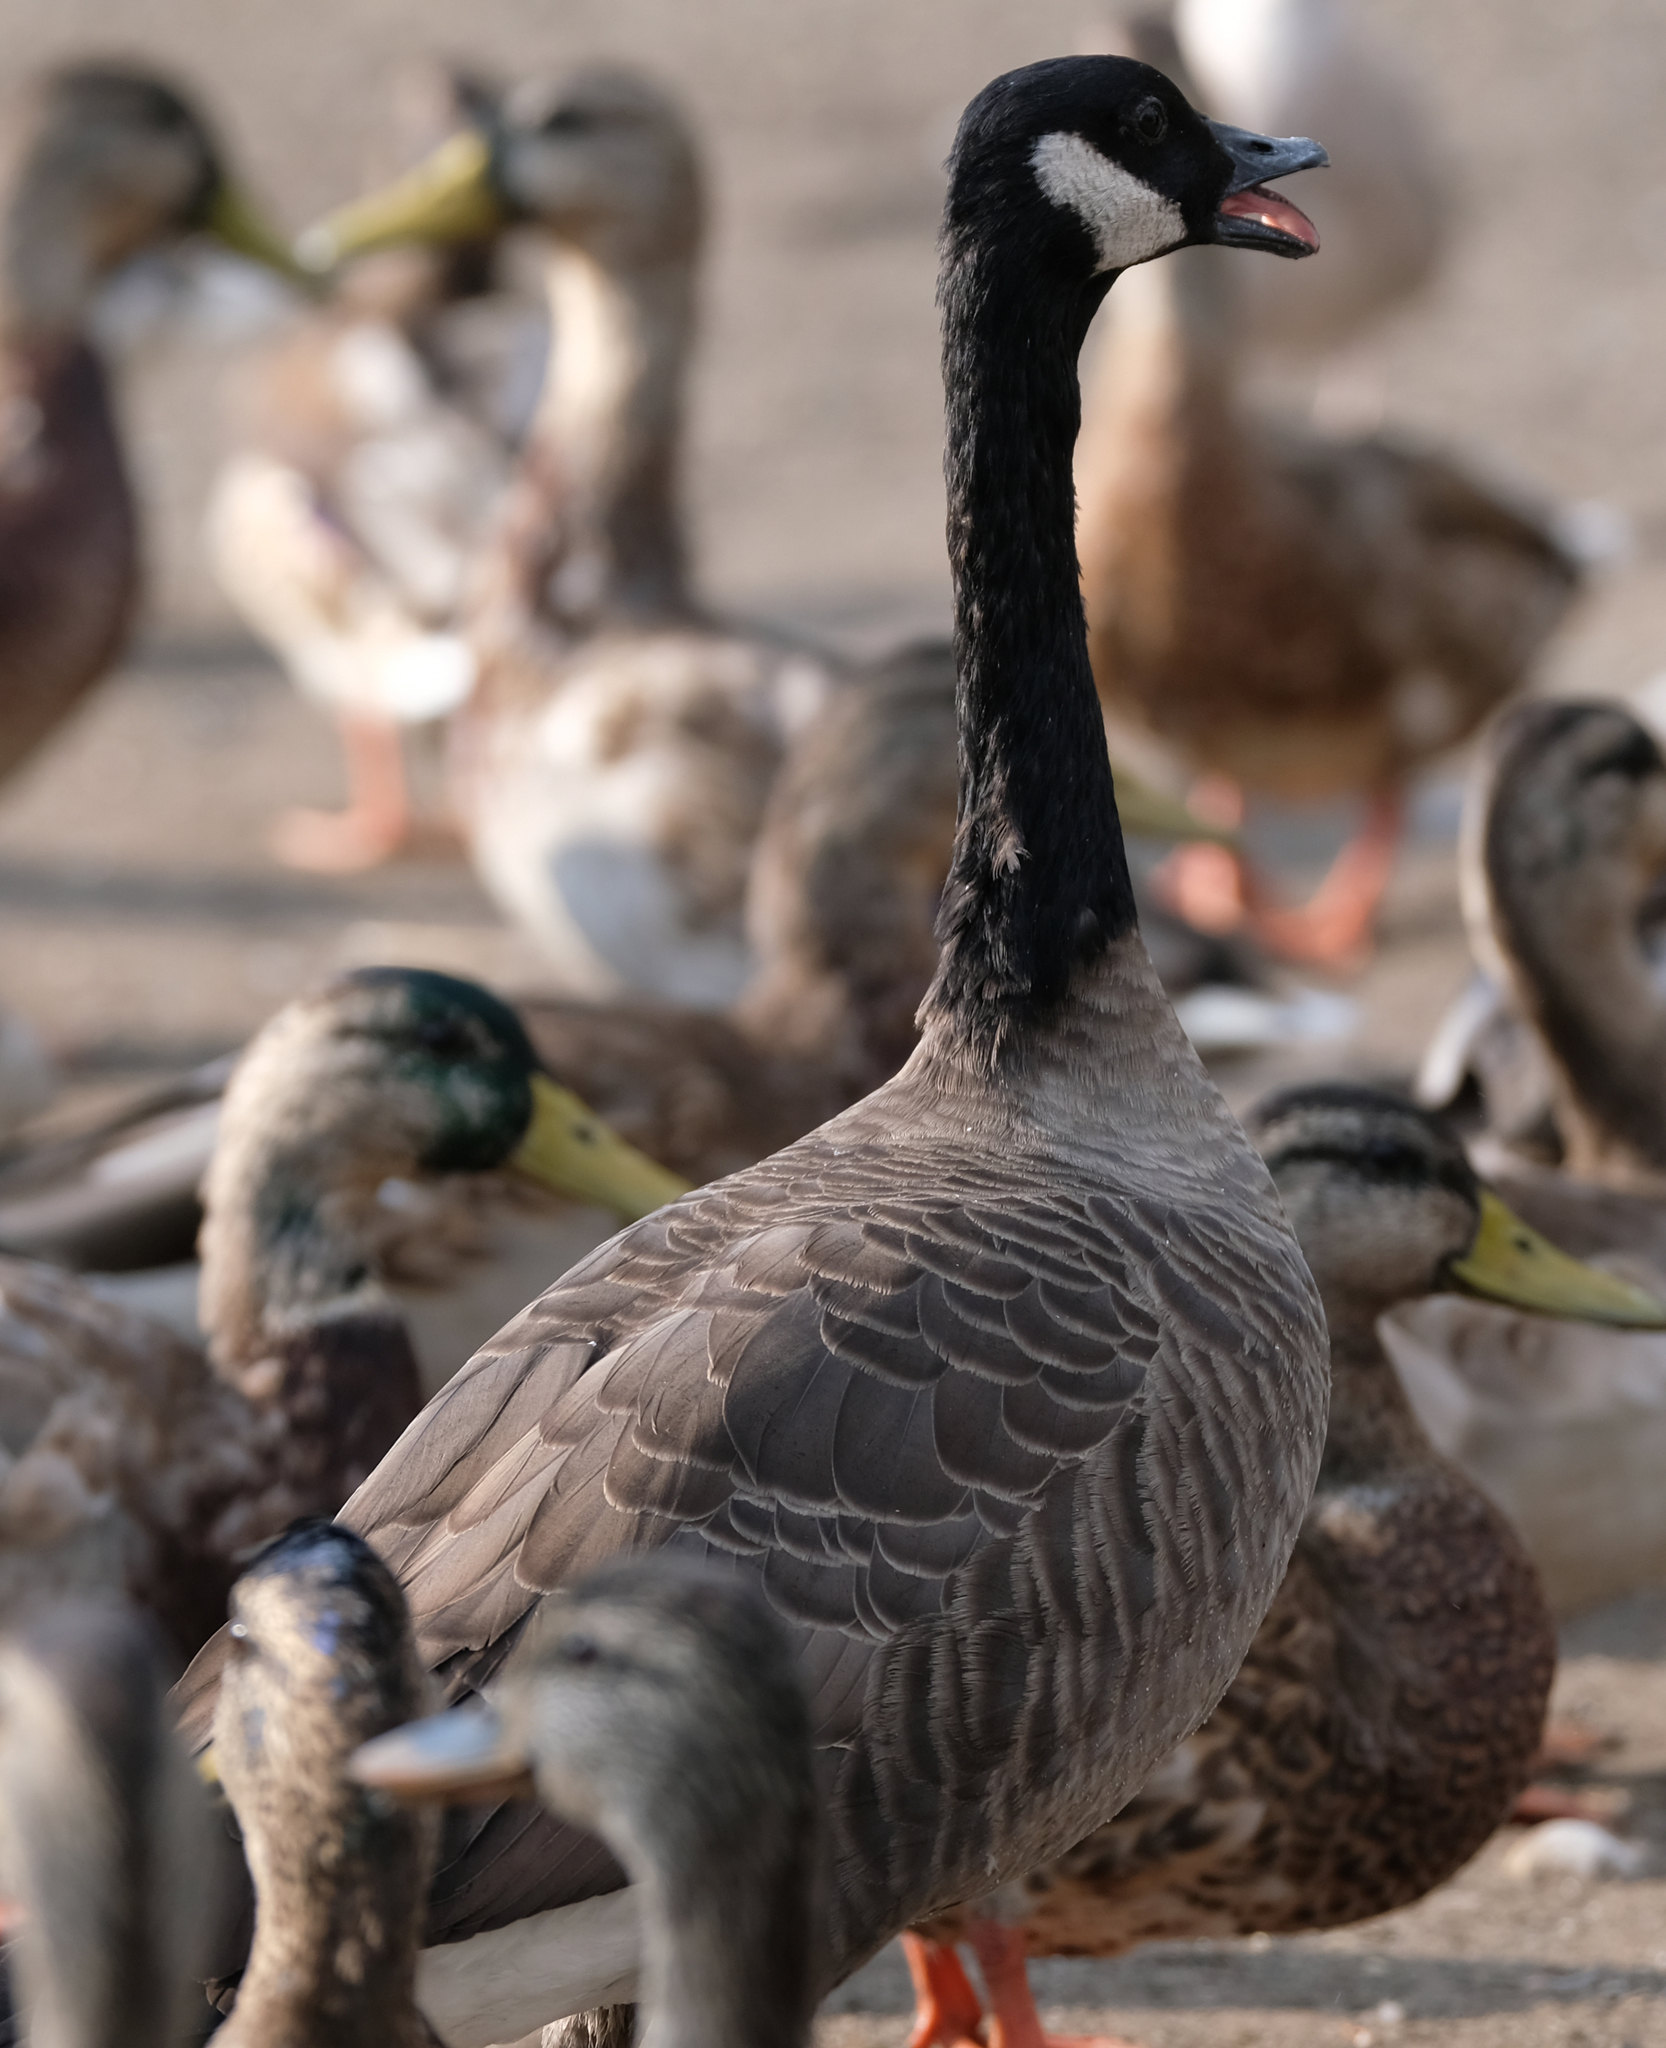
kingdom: Animalia
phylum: Chordata
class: Aves
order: Anseriformes
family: Anatidae
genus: Branta
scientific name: Branta canadensis
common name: Canada goose
